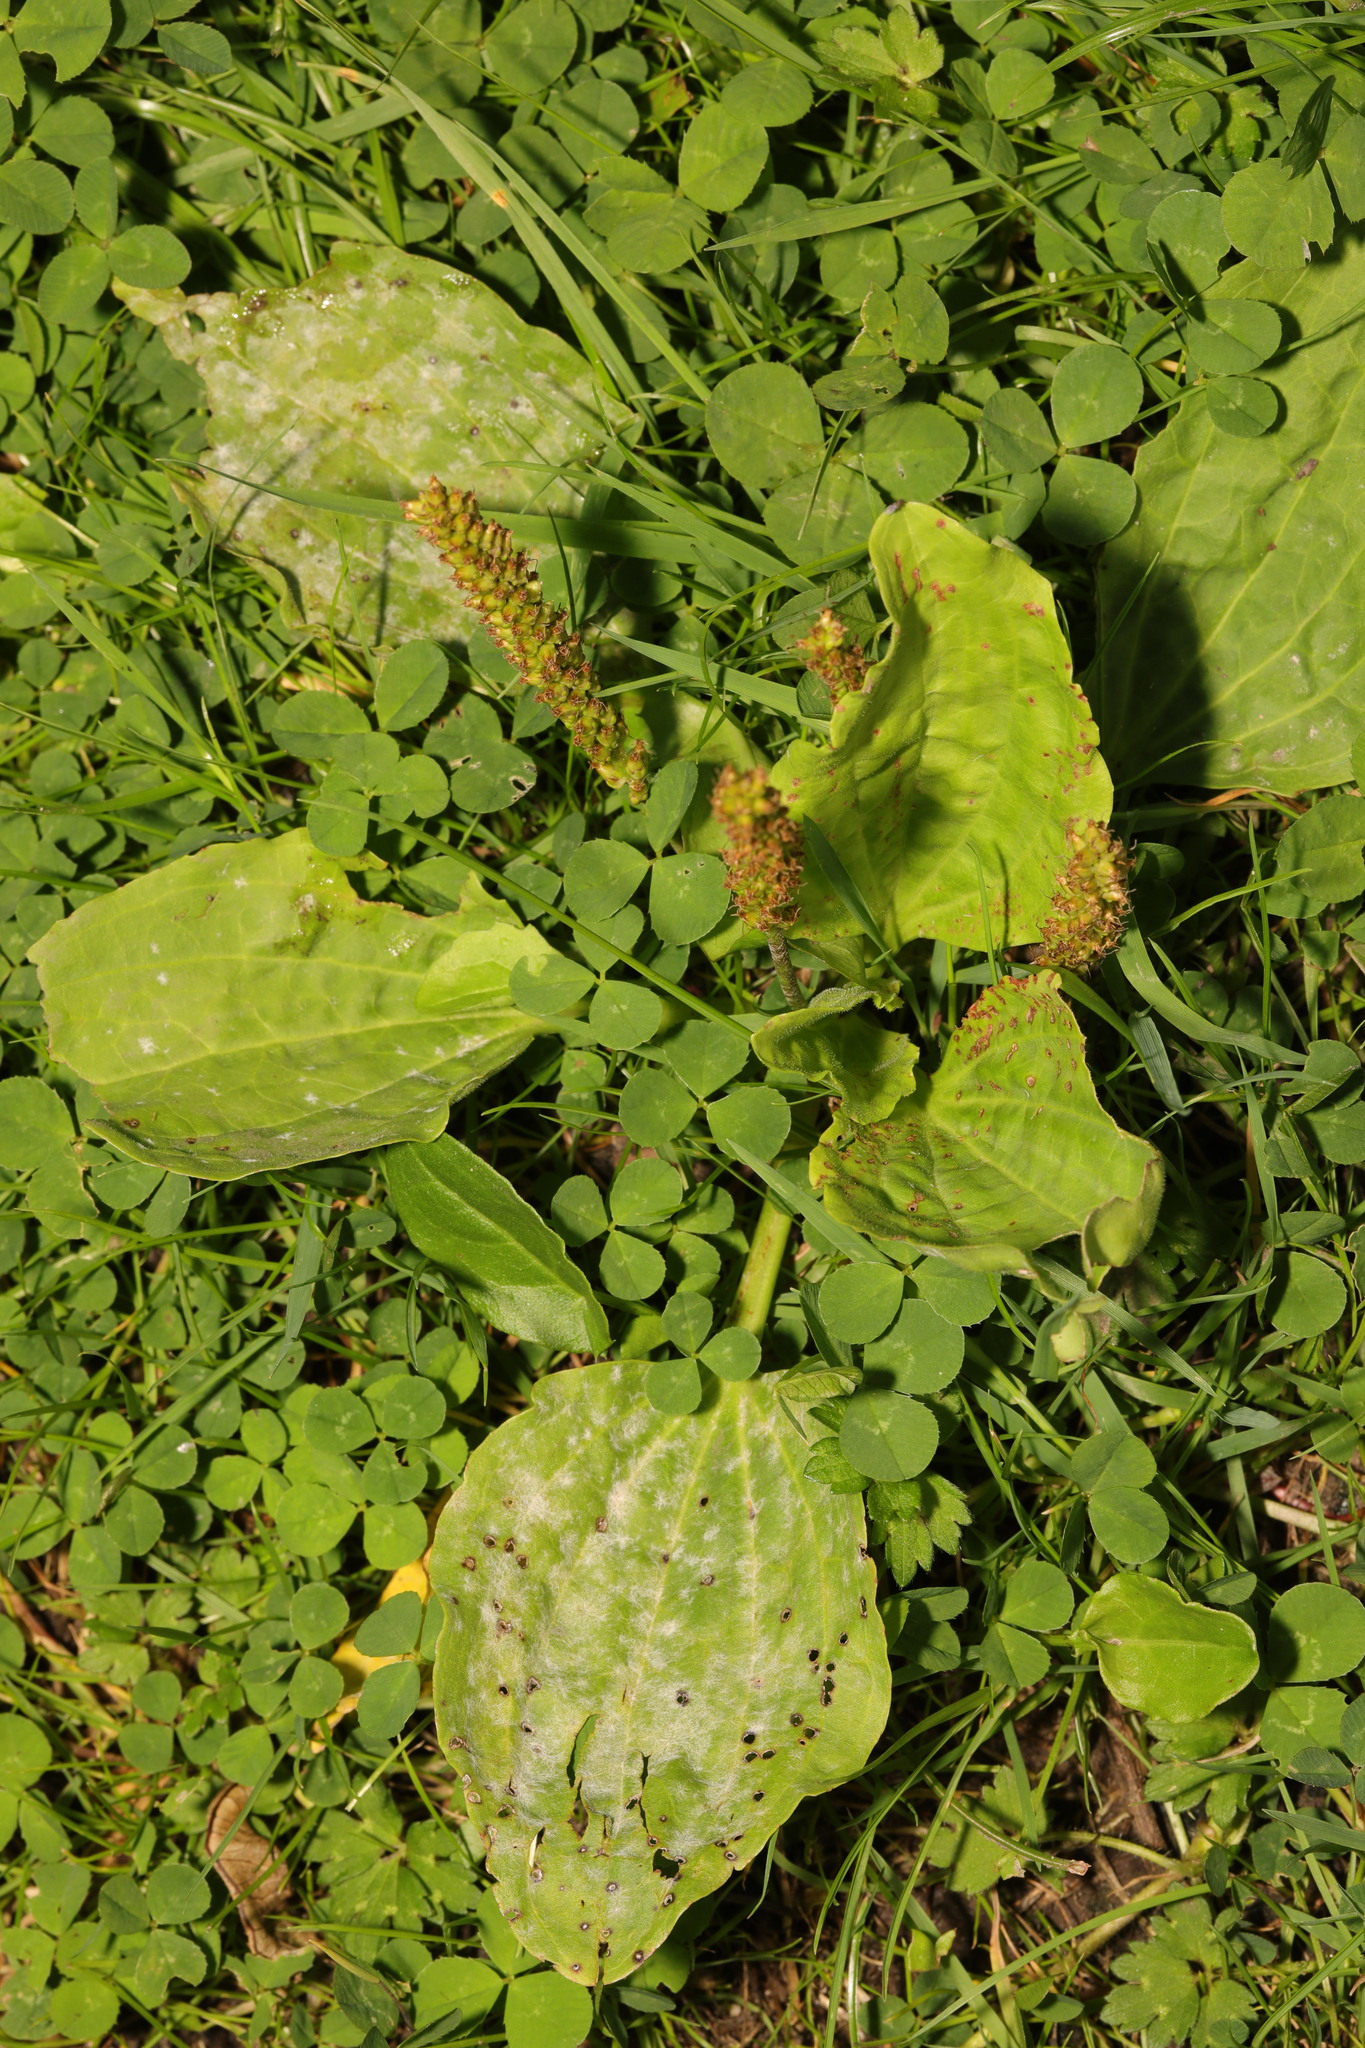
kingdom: Plantae
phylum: Tracheophyta
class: Magnoliopsida
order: Lamiales
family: Plantaginaceae
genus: Plantago
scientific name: Plantago major
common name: Common plantain
